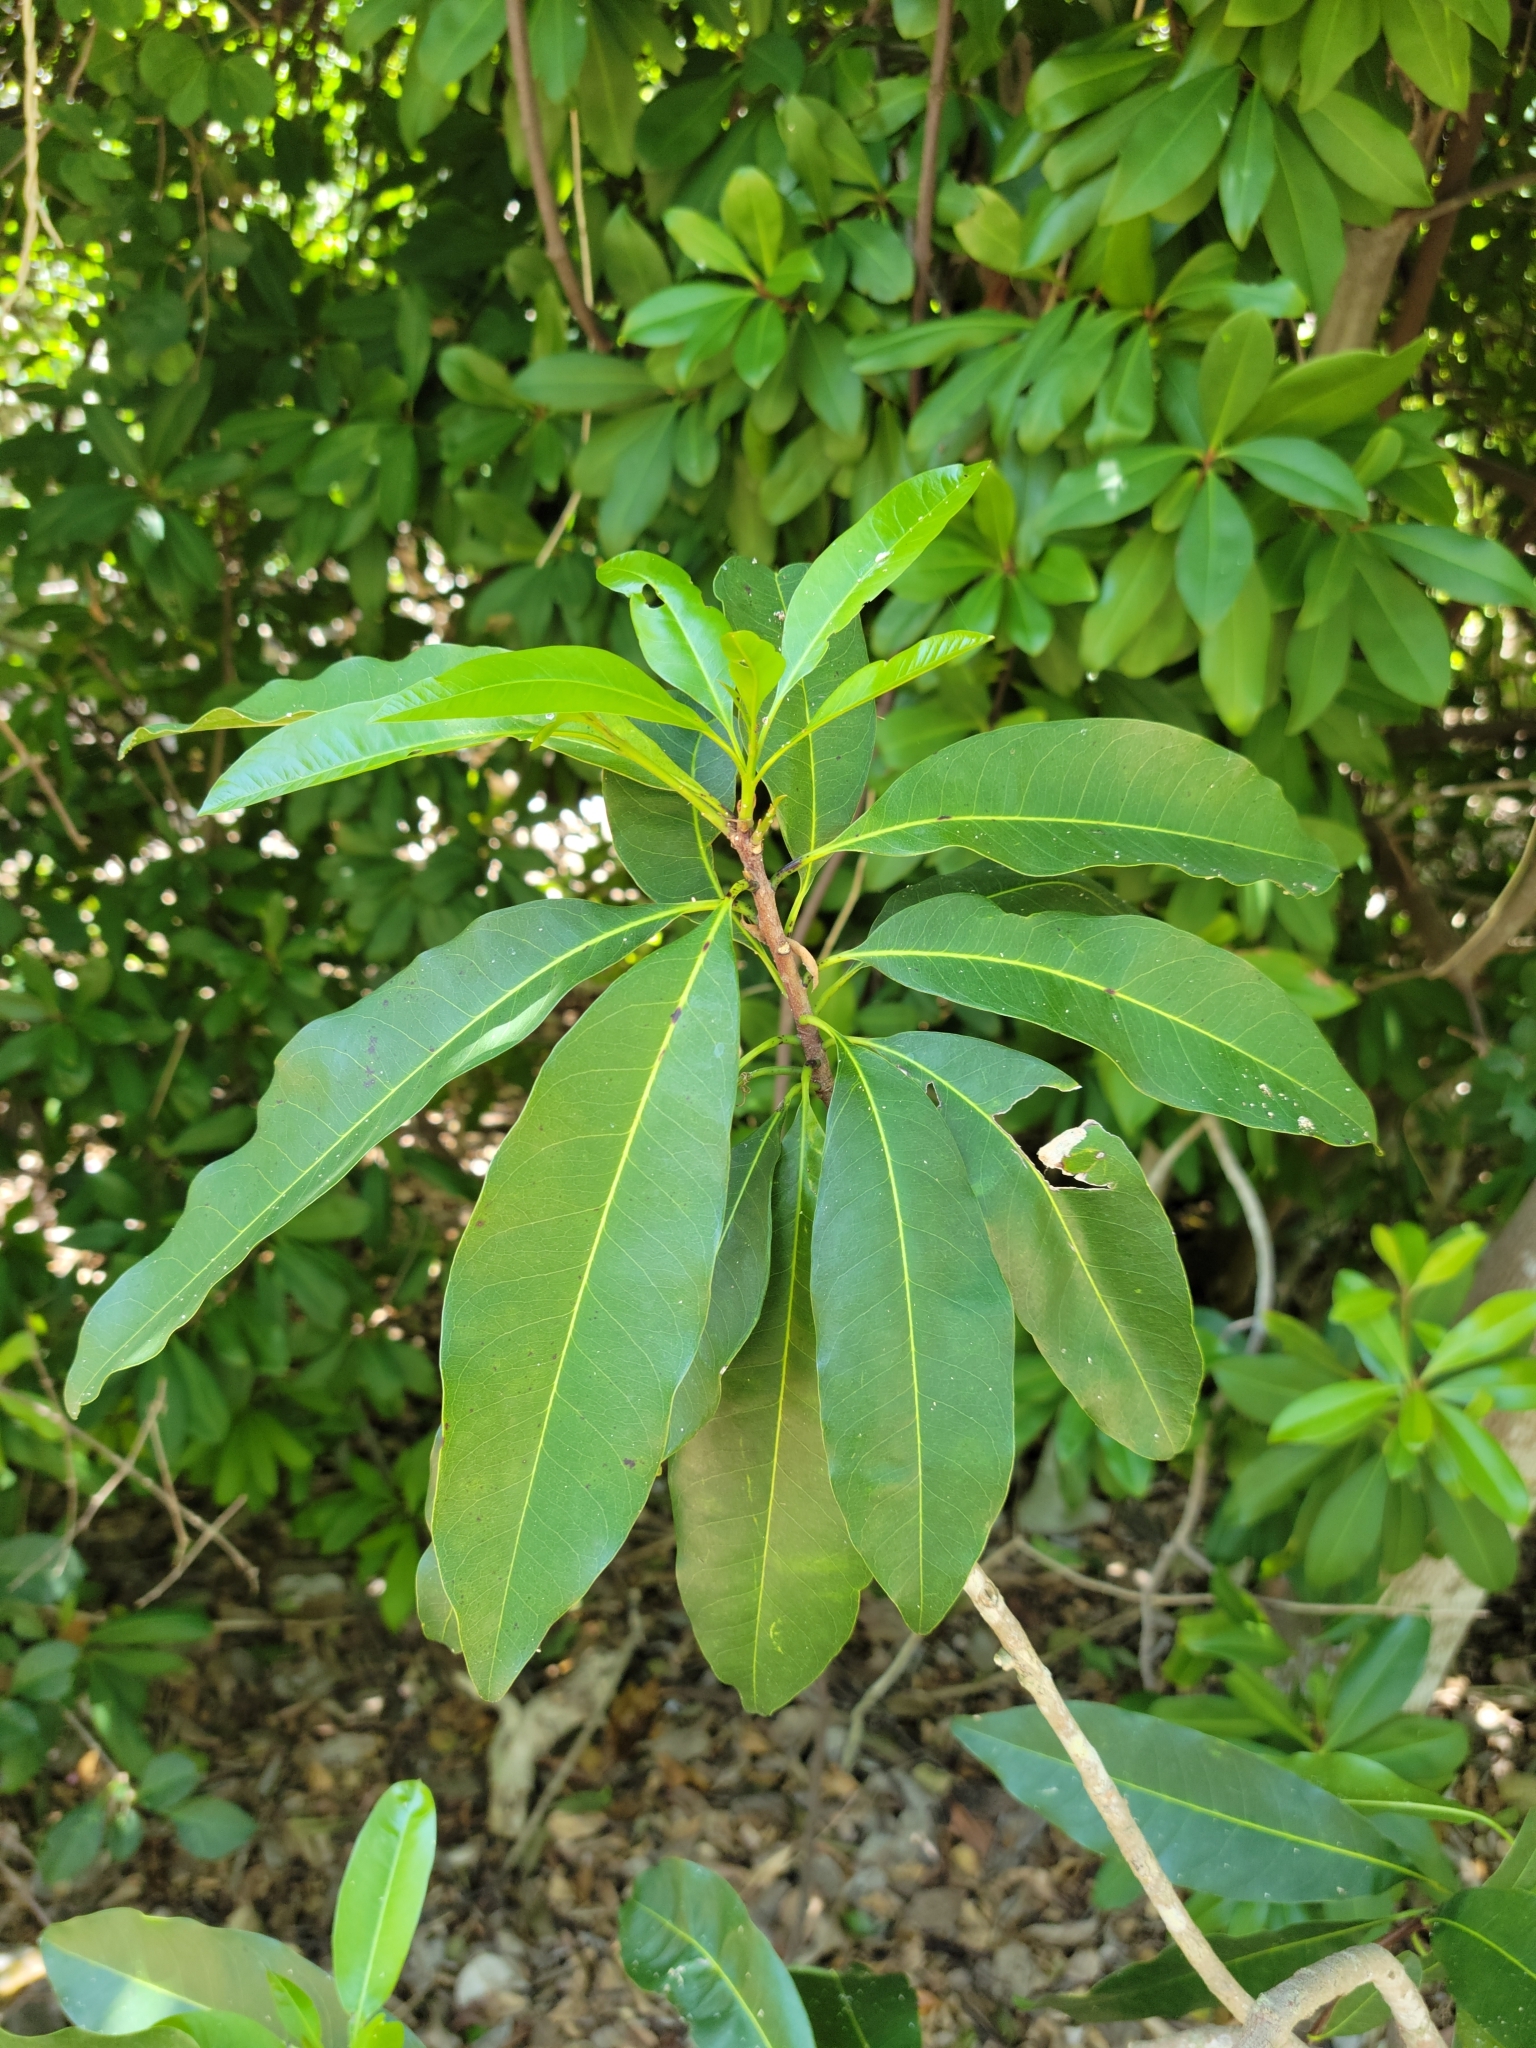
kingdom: Plantae
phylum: Tracheophyta
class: Magnoliopsida
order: Ericales
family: Sapotaceae
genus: Sideroxylon
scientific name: Sideroxylon foetidissimum
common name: Barbados-mastic
